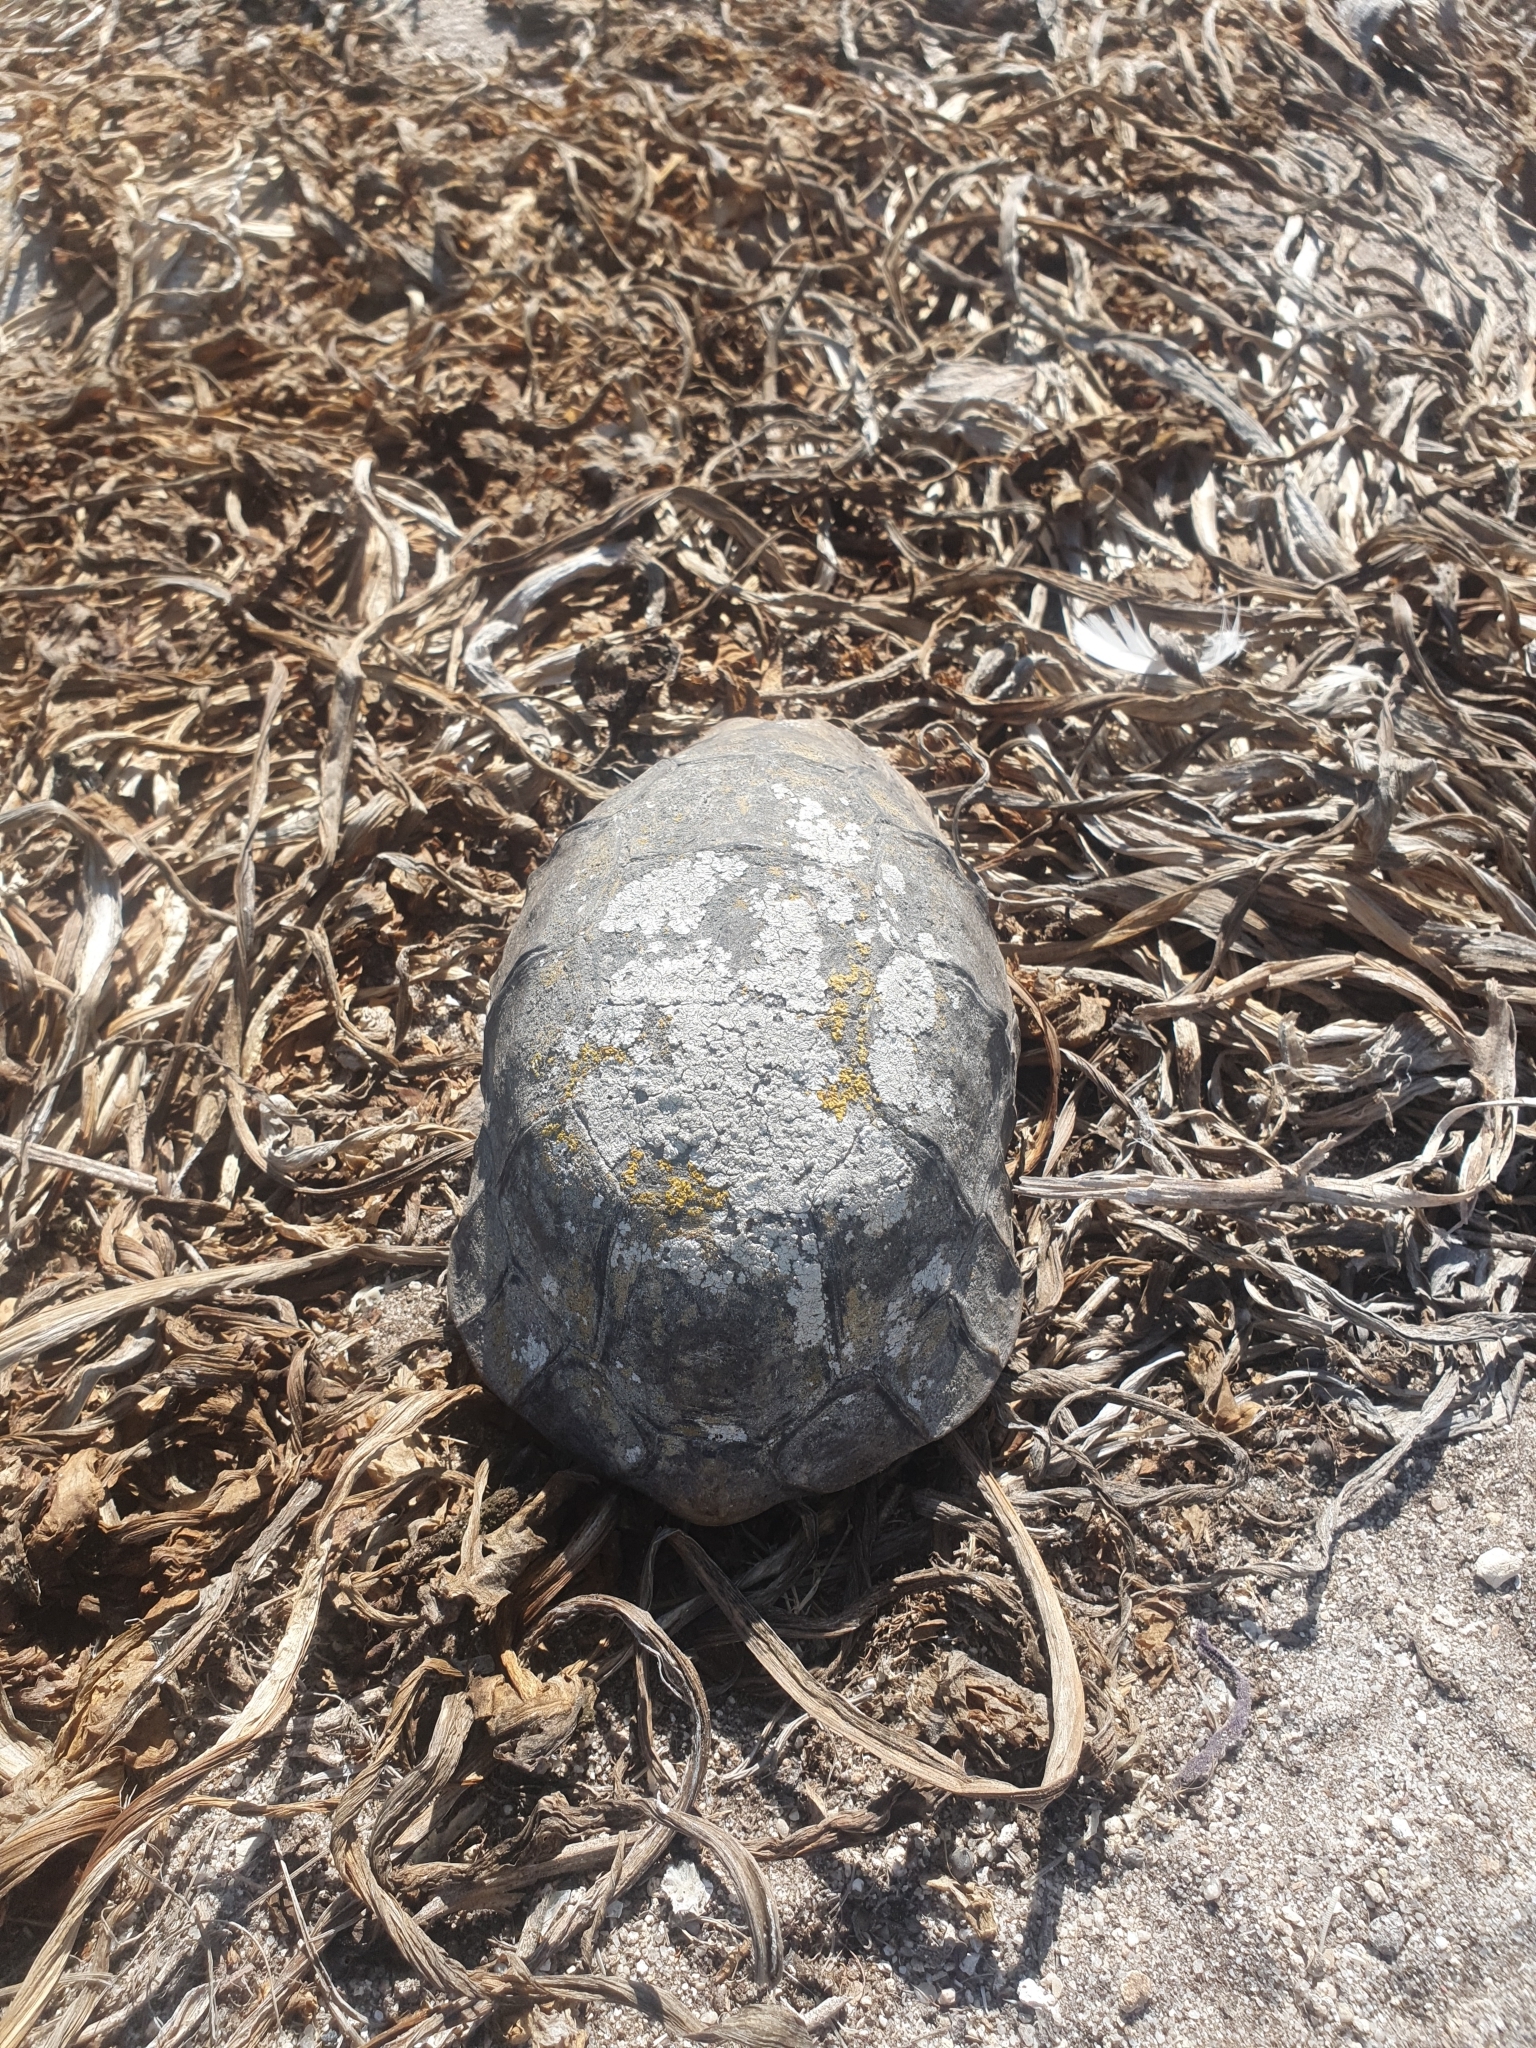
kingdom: Animalia
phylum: Chordata
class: Testudines
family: Testudinidae
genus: Chersina
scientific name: Chersina angulata
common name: South african bowsprit tortoise
